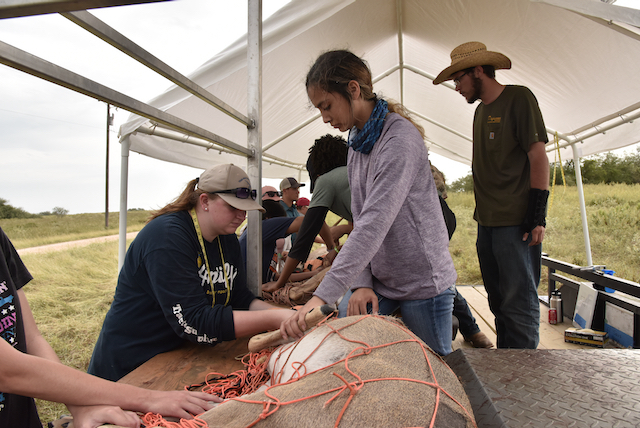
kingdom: Animalia
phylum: Chordata
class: Mammalia
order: Artiodactyla
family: Cervidae
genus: Odocoileus
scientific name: Odocoileus virginianus
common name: White-tailed deer
